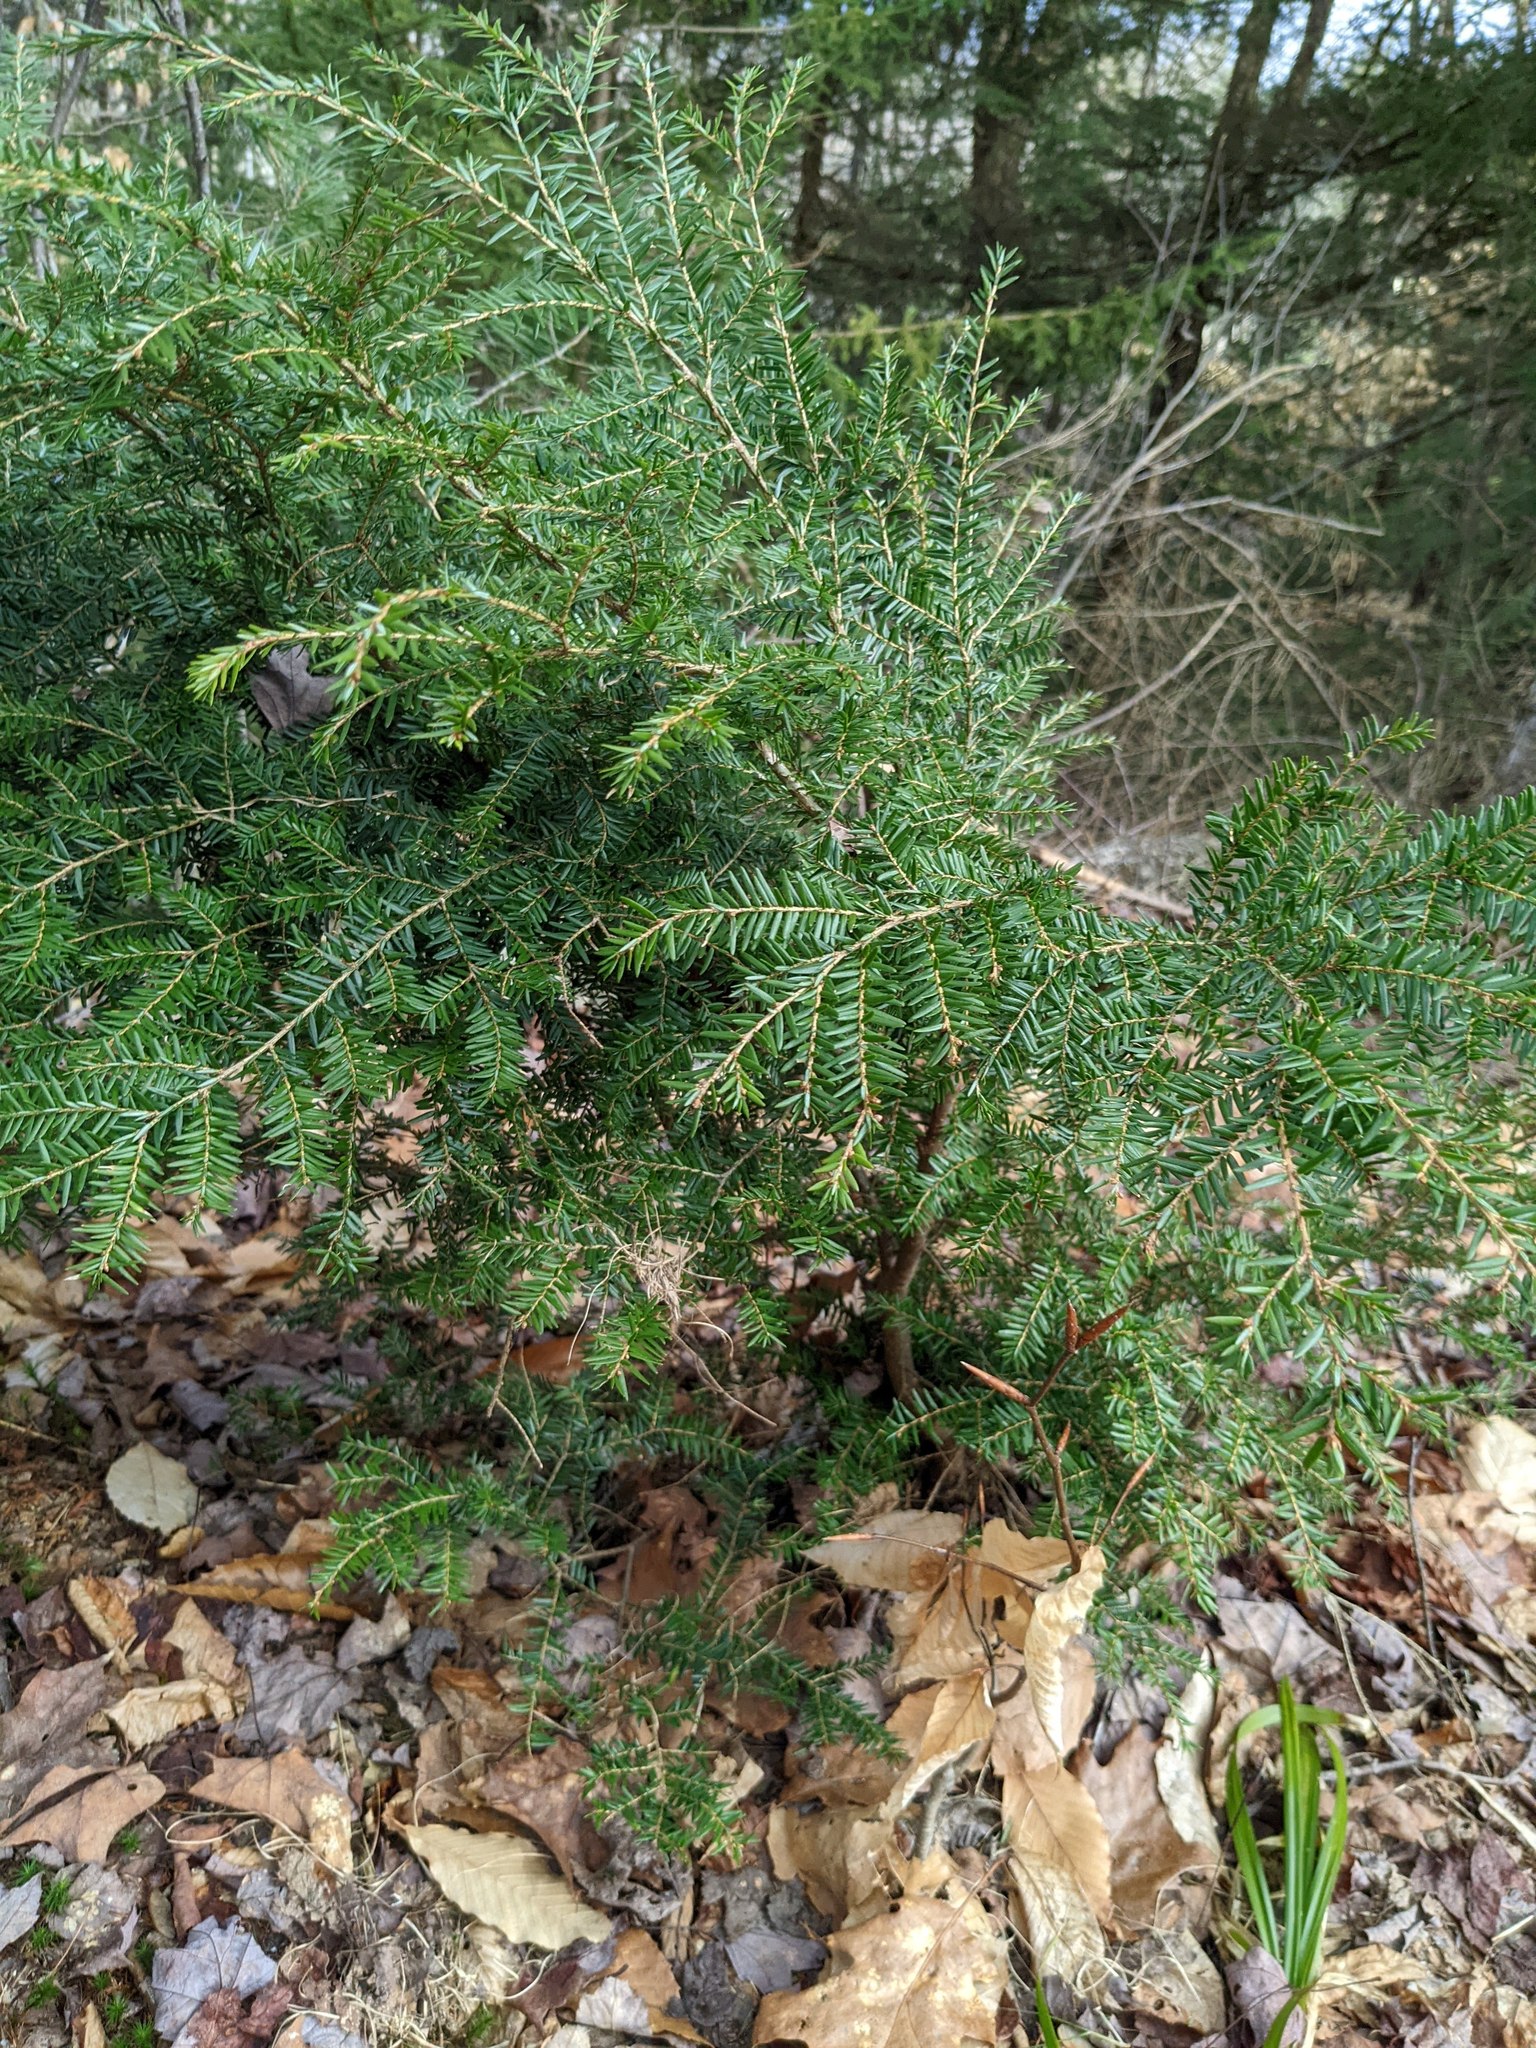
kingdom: Plantae
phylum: Tracheophyta
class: Pinopsida
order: Pinales
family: Pinaceae
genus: Tsuga
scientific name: Tsuga canadensis
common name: Eastern hemlock
